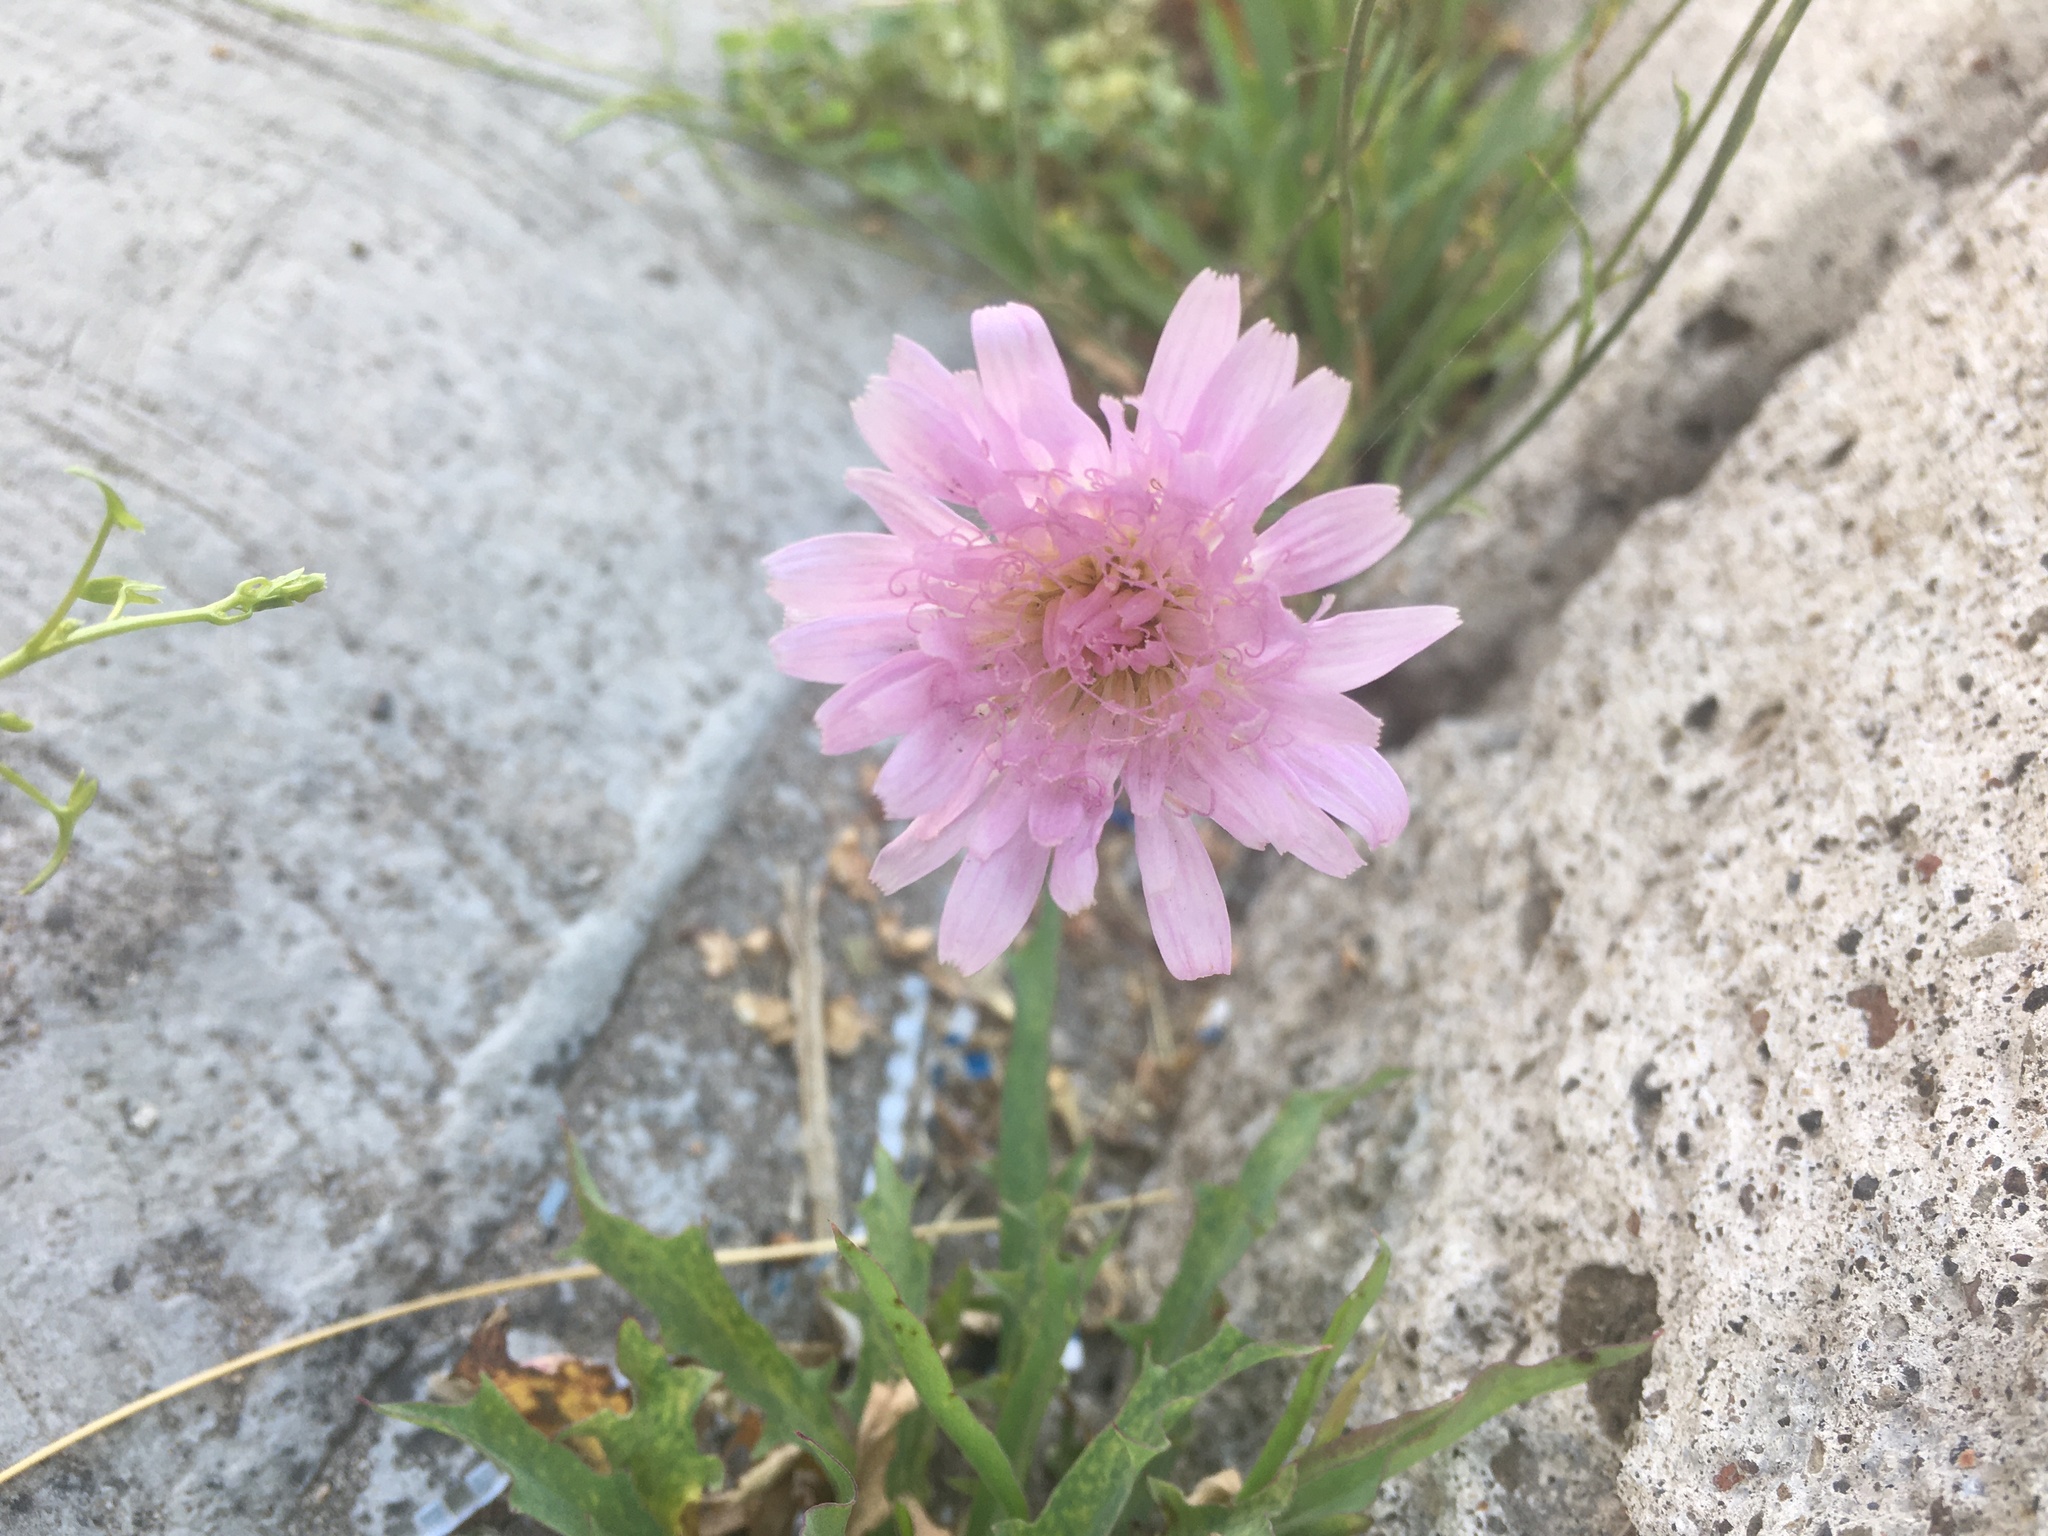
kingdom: Plantae
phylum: Tracheophyta
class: Magnoliopsida
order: Asterales
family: Asteraceae
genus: Pinaropappus
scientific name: Pinaropappus roseus
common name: Rock-lettuce
